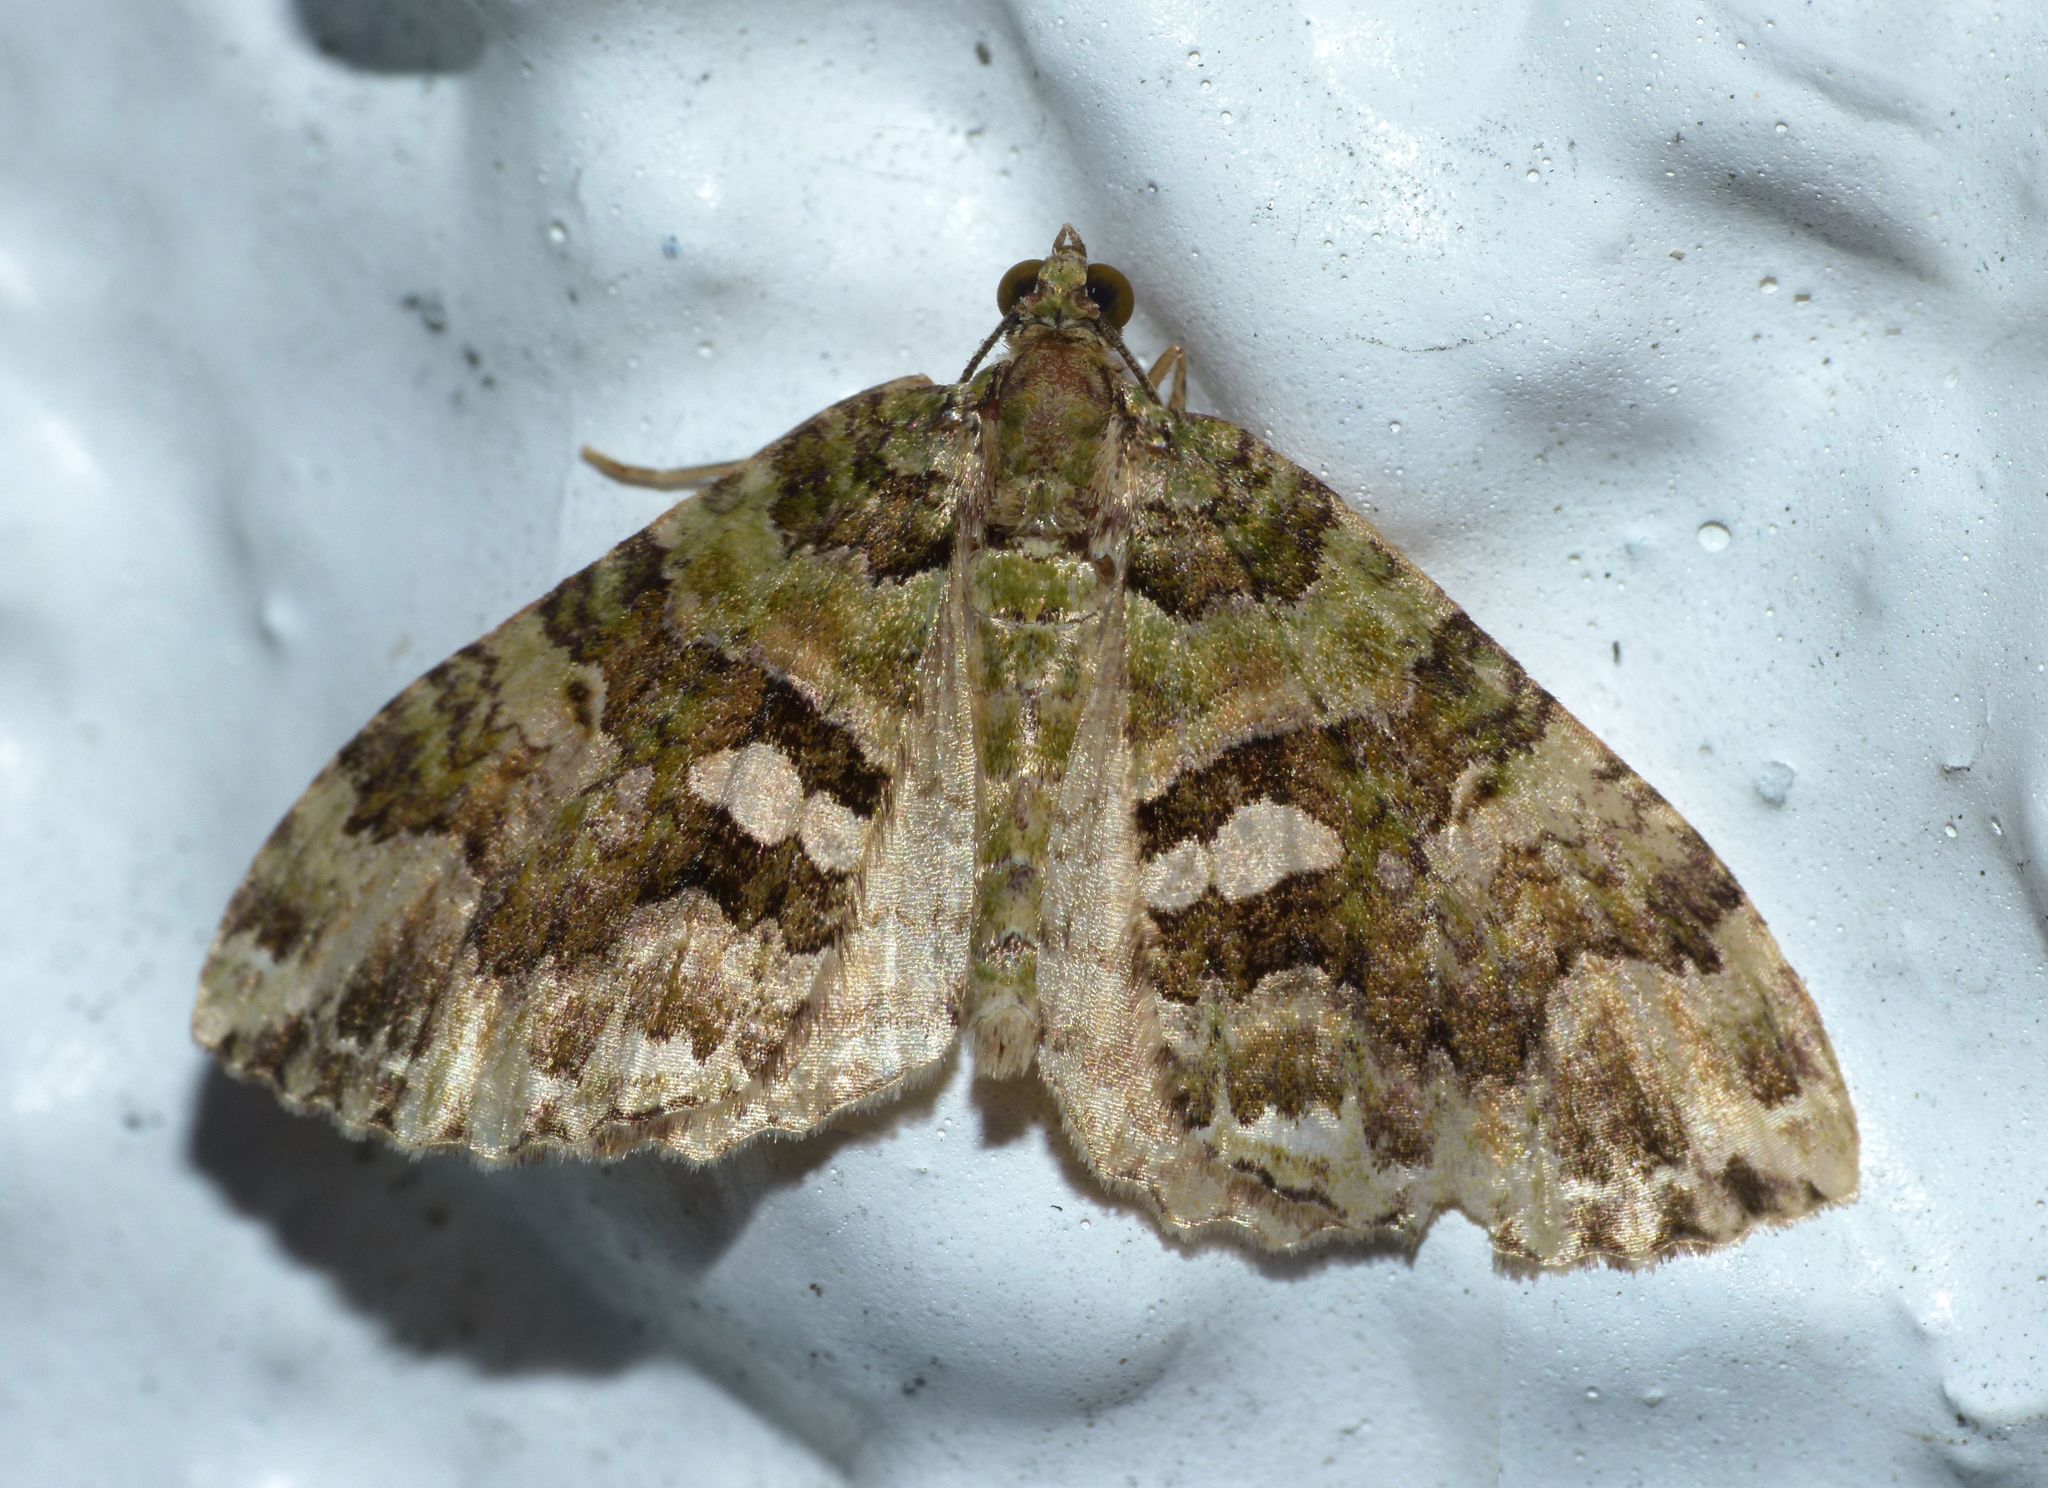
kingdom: Animalia
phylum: Arthropoda
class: Insecta
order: Lepidoptera
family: Geometridae
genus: Austrocidaria
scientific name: Austrocidaria similata
